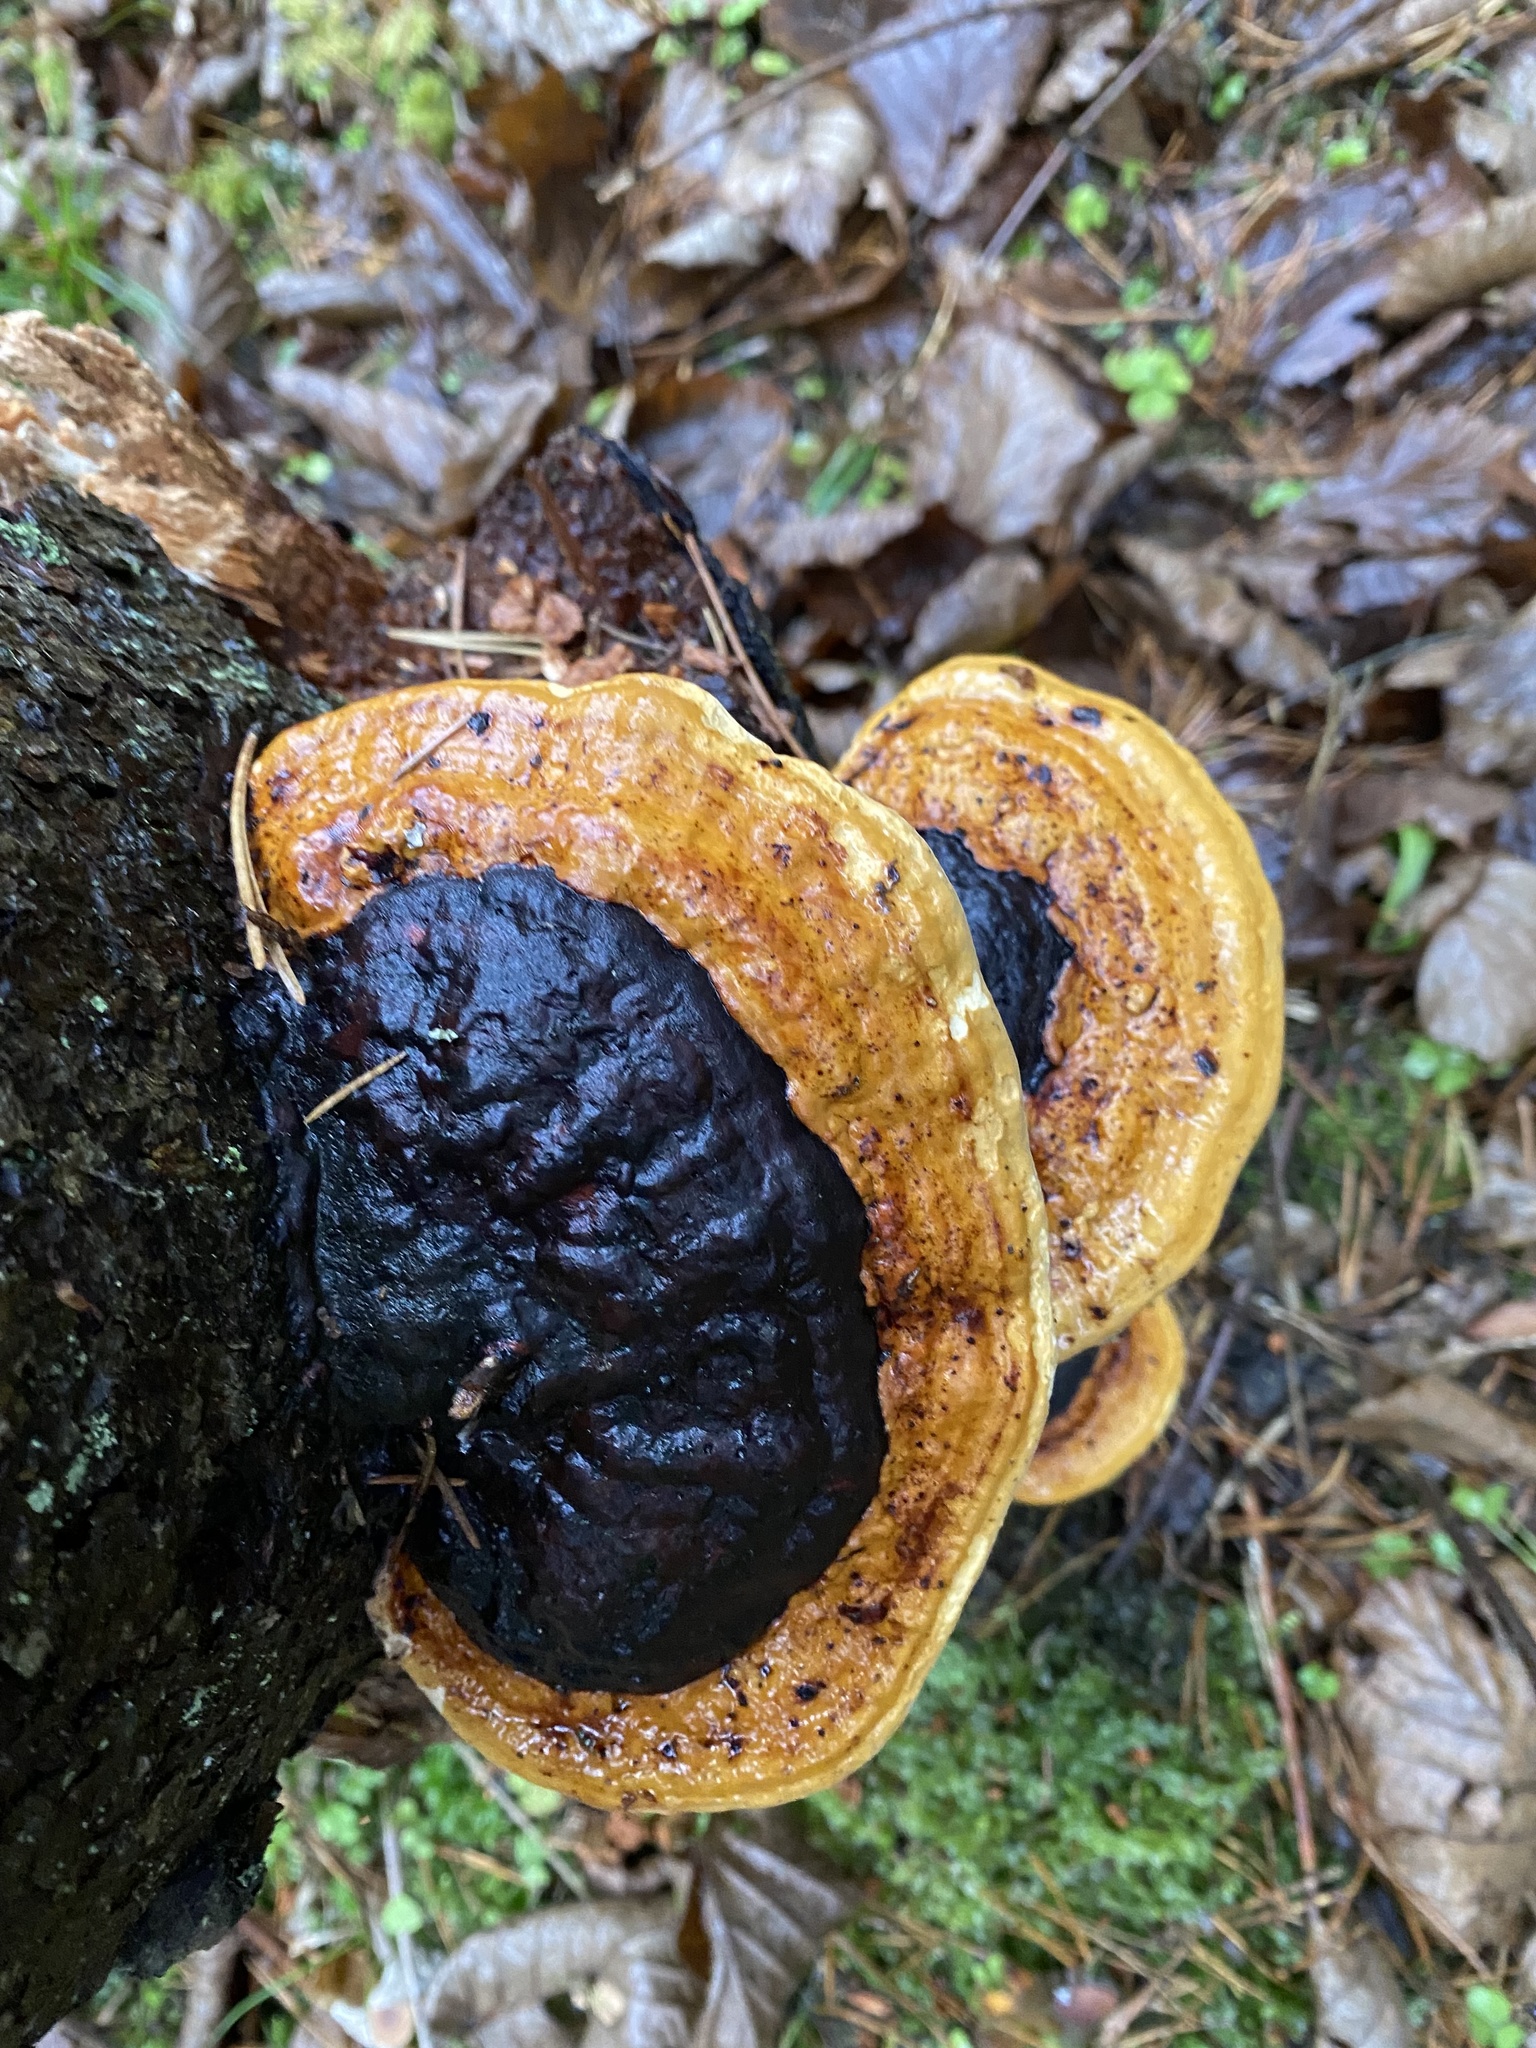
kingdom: Fungi
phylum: Basidiomycota
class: Agaricomycetes
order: Polyporales
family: Fomitopsidaceae
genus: Fomitopsis
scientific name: Fomitopsis pinicola
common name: Red-belted bracket
